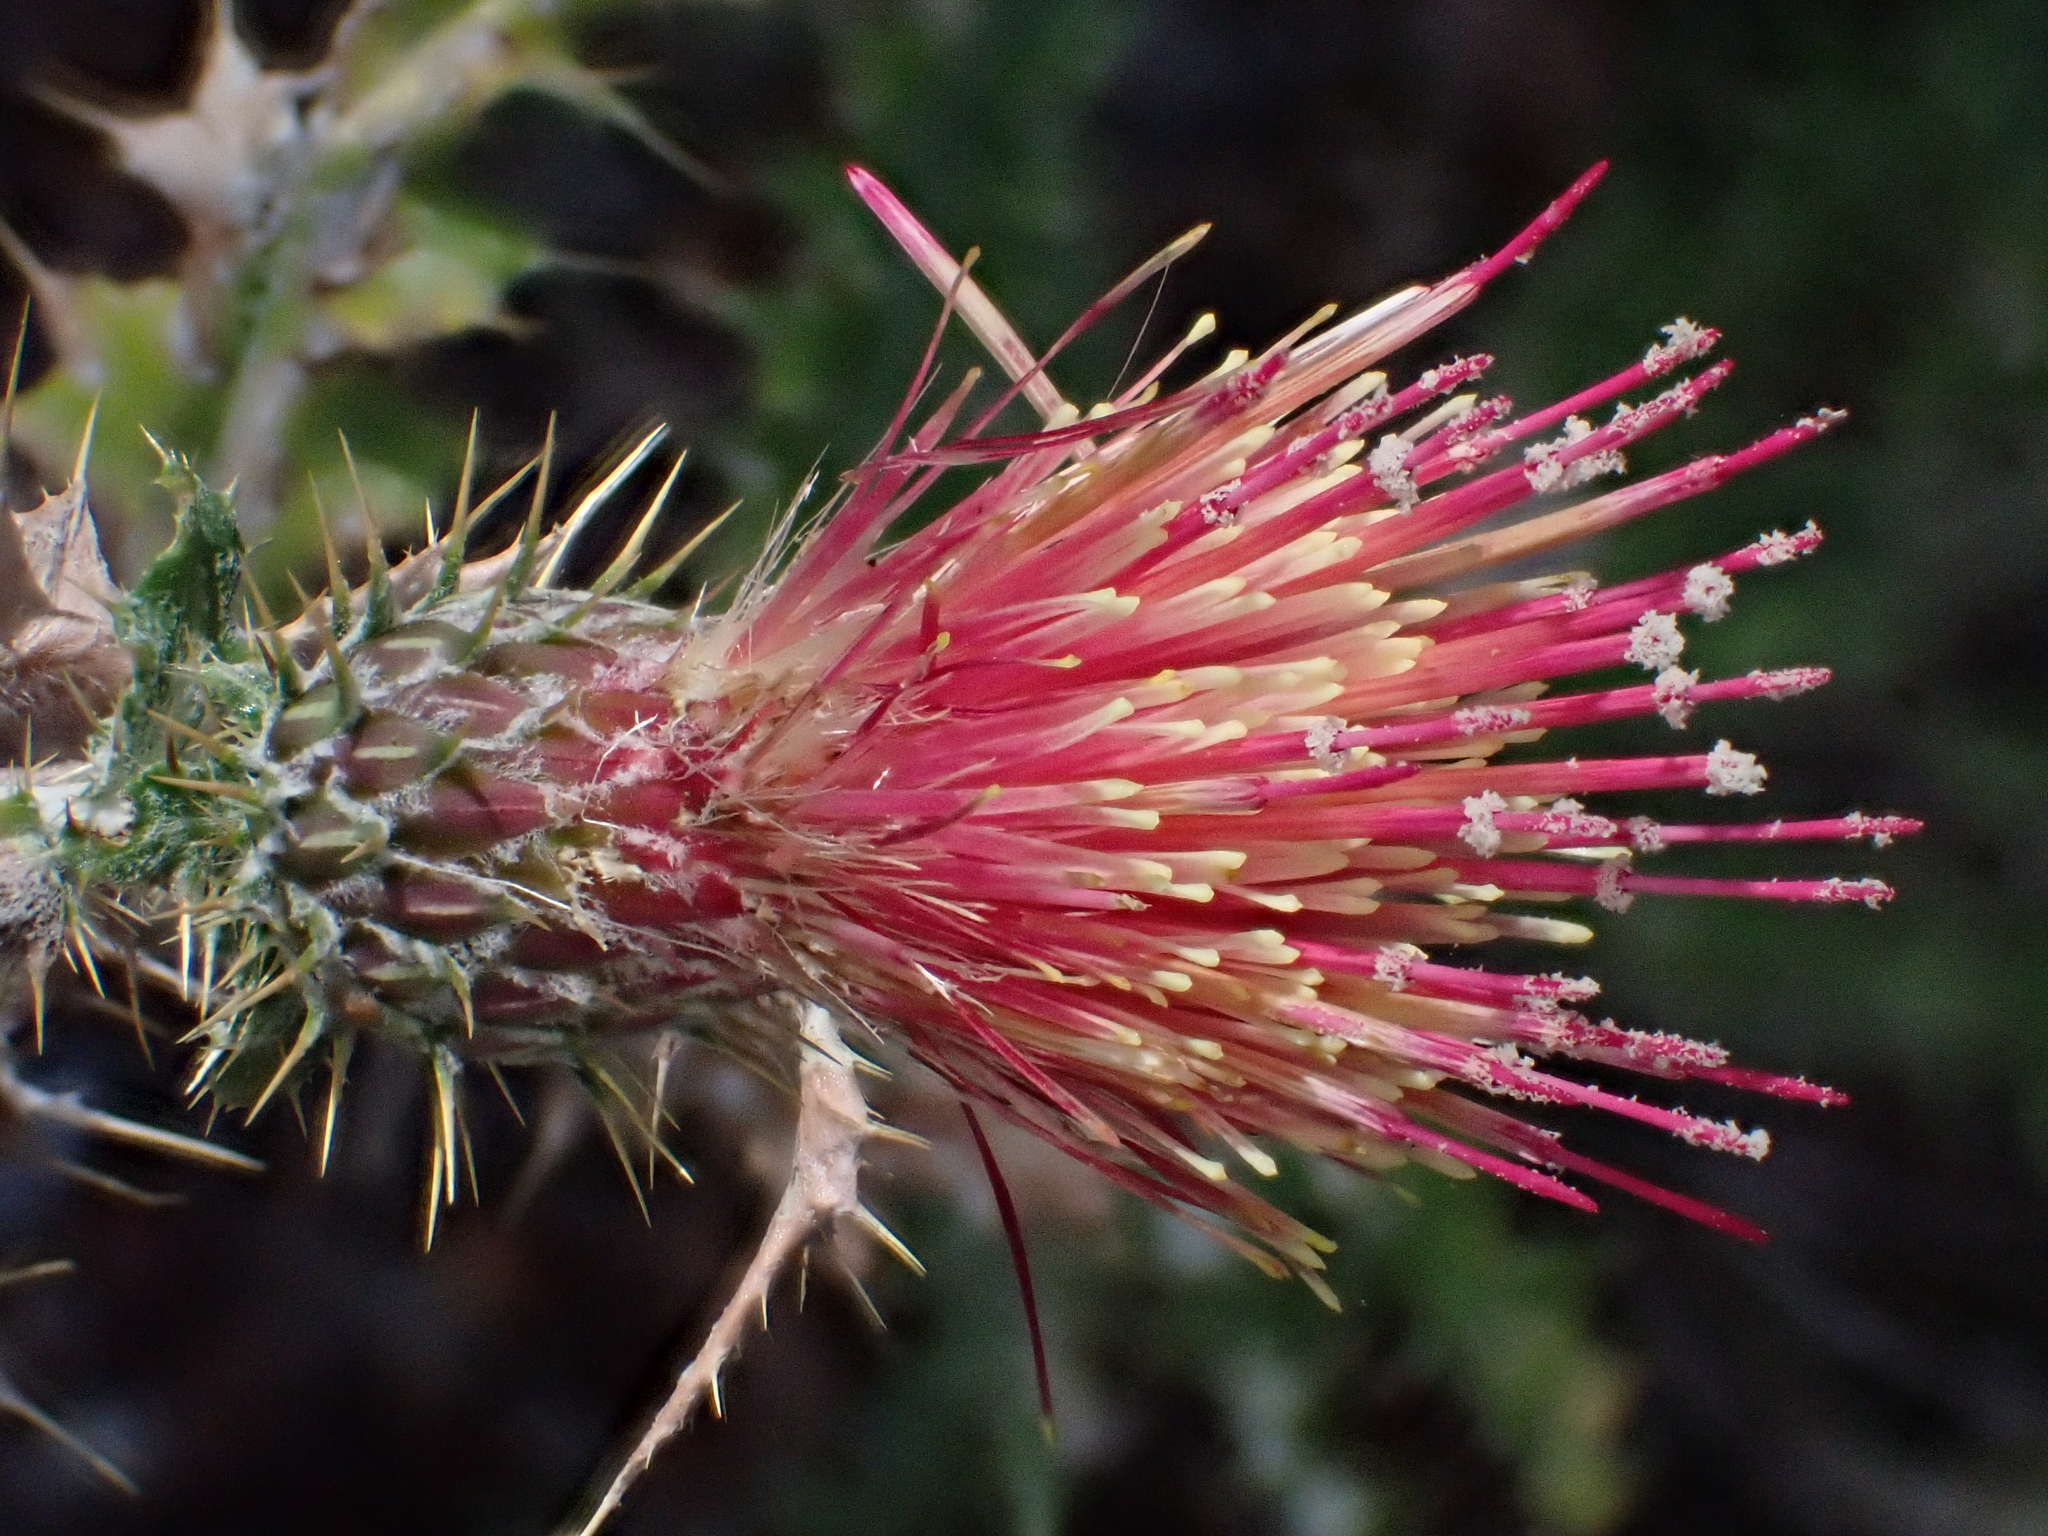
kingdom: Plantae
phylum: Tracheophyta
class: Magnoliopsida
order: Asterales
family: Asteraceae
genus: Cirsium
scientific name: Cirsium arizonicum
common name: Arizona thistle
